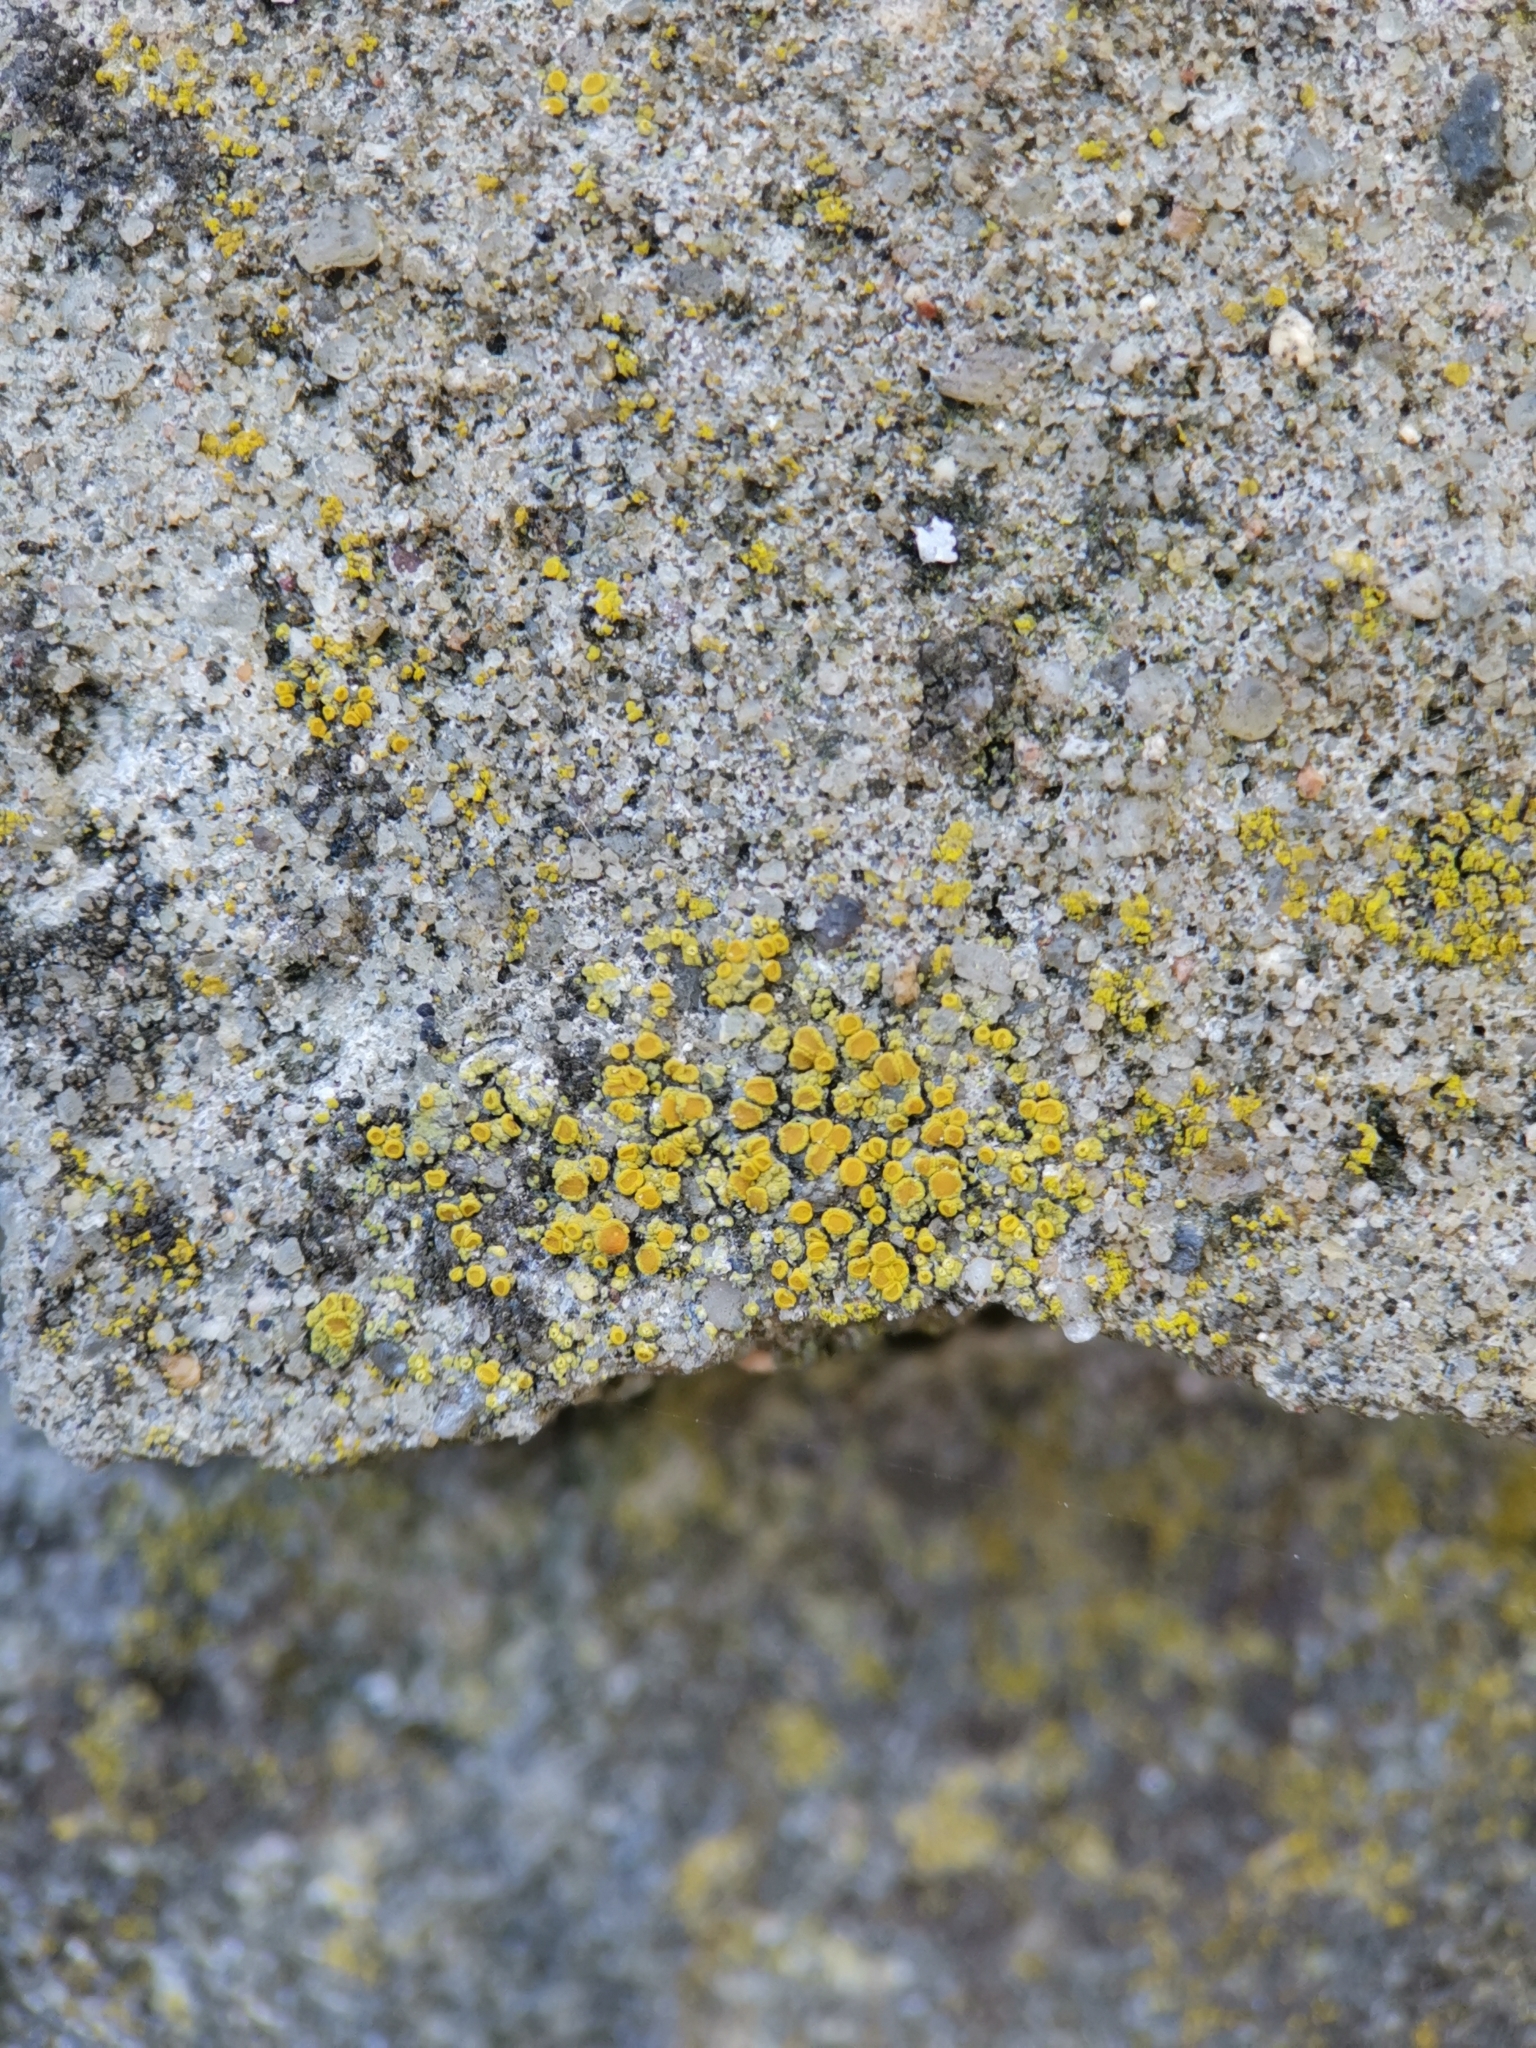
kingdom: Fungi
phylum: Ascomycota
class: Candelariomycetes
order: Candelariales
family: Candelariaceae
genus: Candelariella
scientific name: Candelariella aurella
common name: Hidden goldspeck lichen
